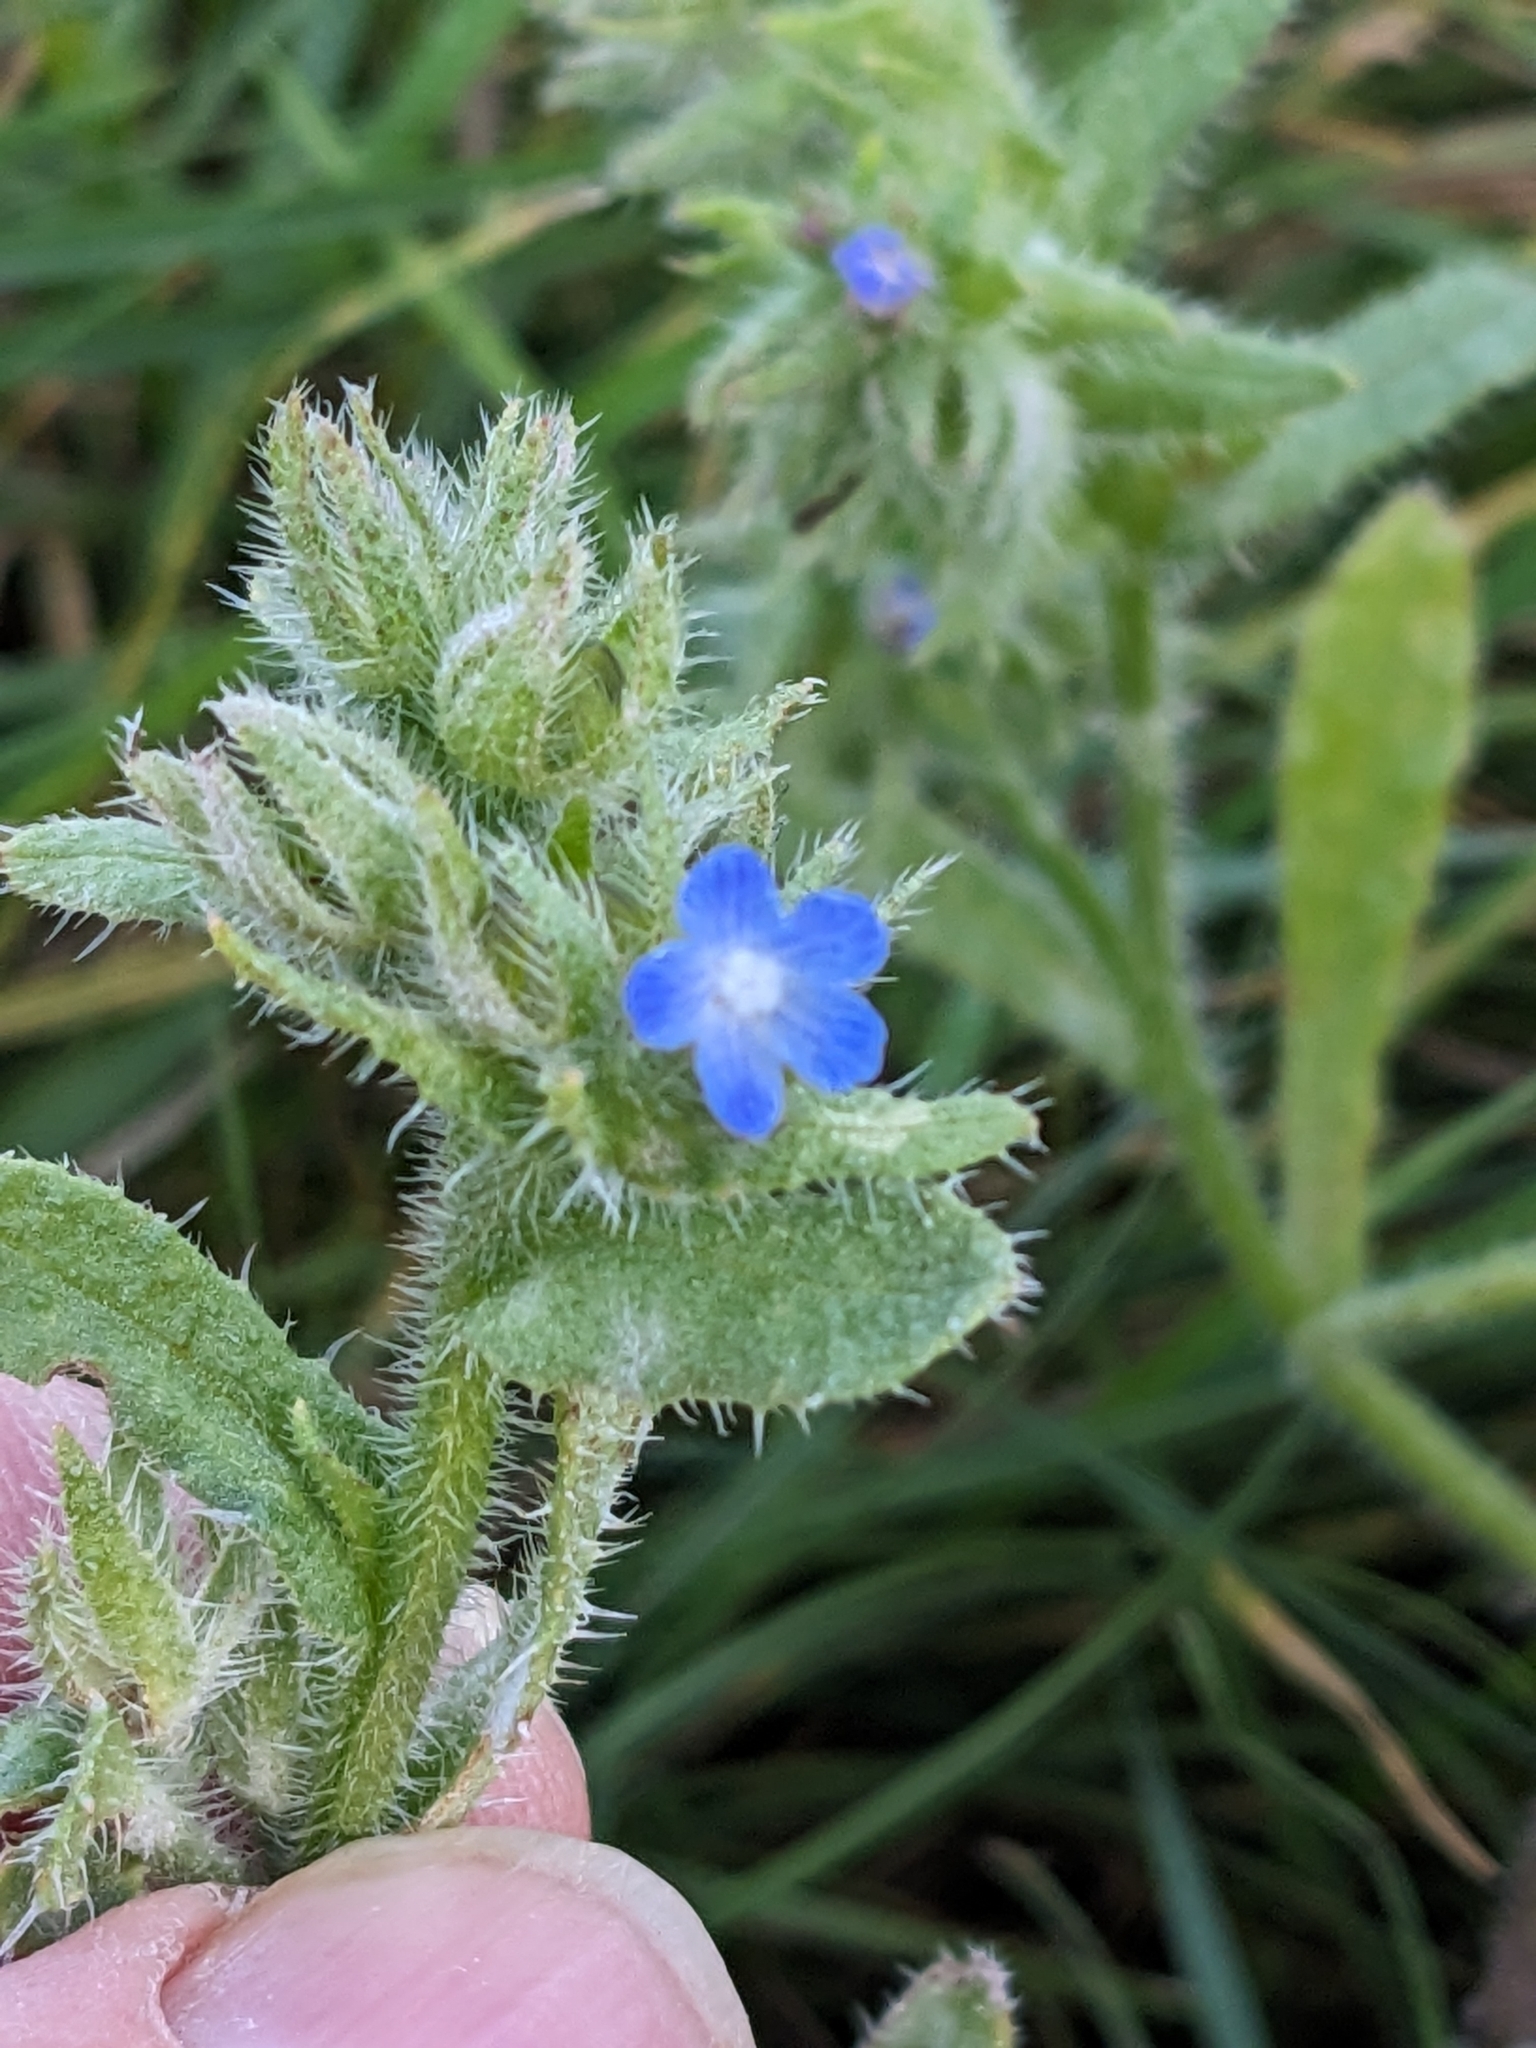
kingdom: Plantae
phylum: Tracheophyta
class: Magnoliopsida
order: Boraginales
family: Boraginaceae
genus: Lycopsis
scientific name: Lycopsis arvensis
